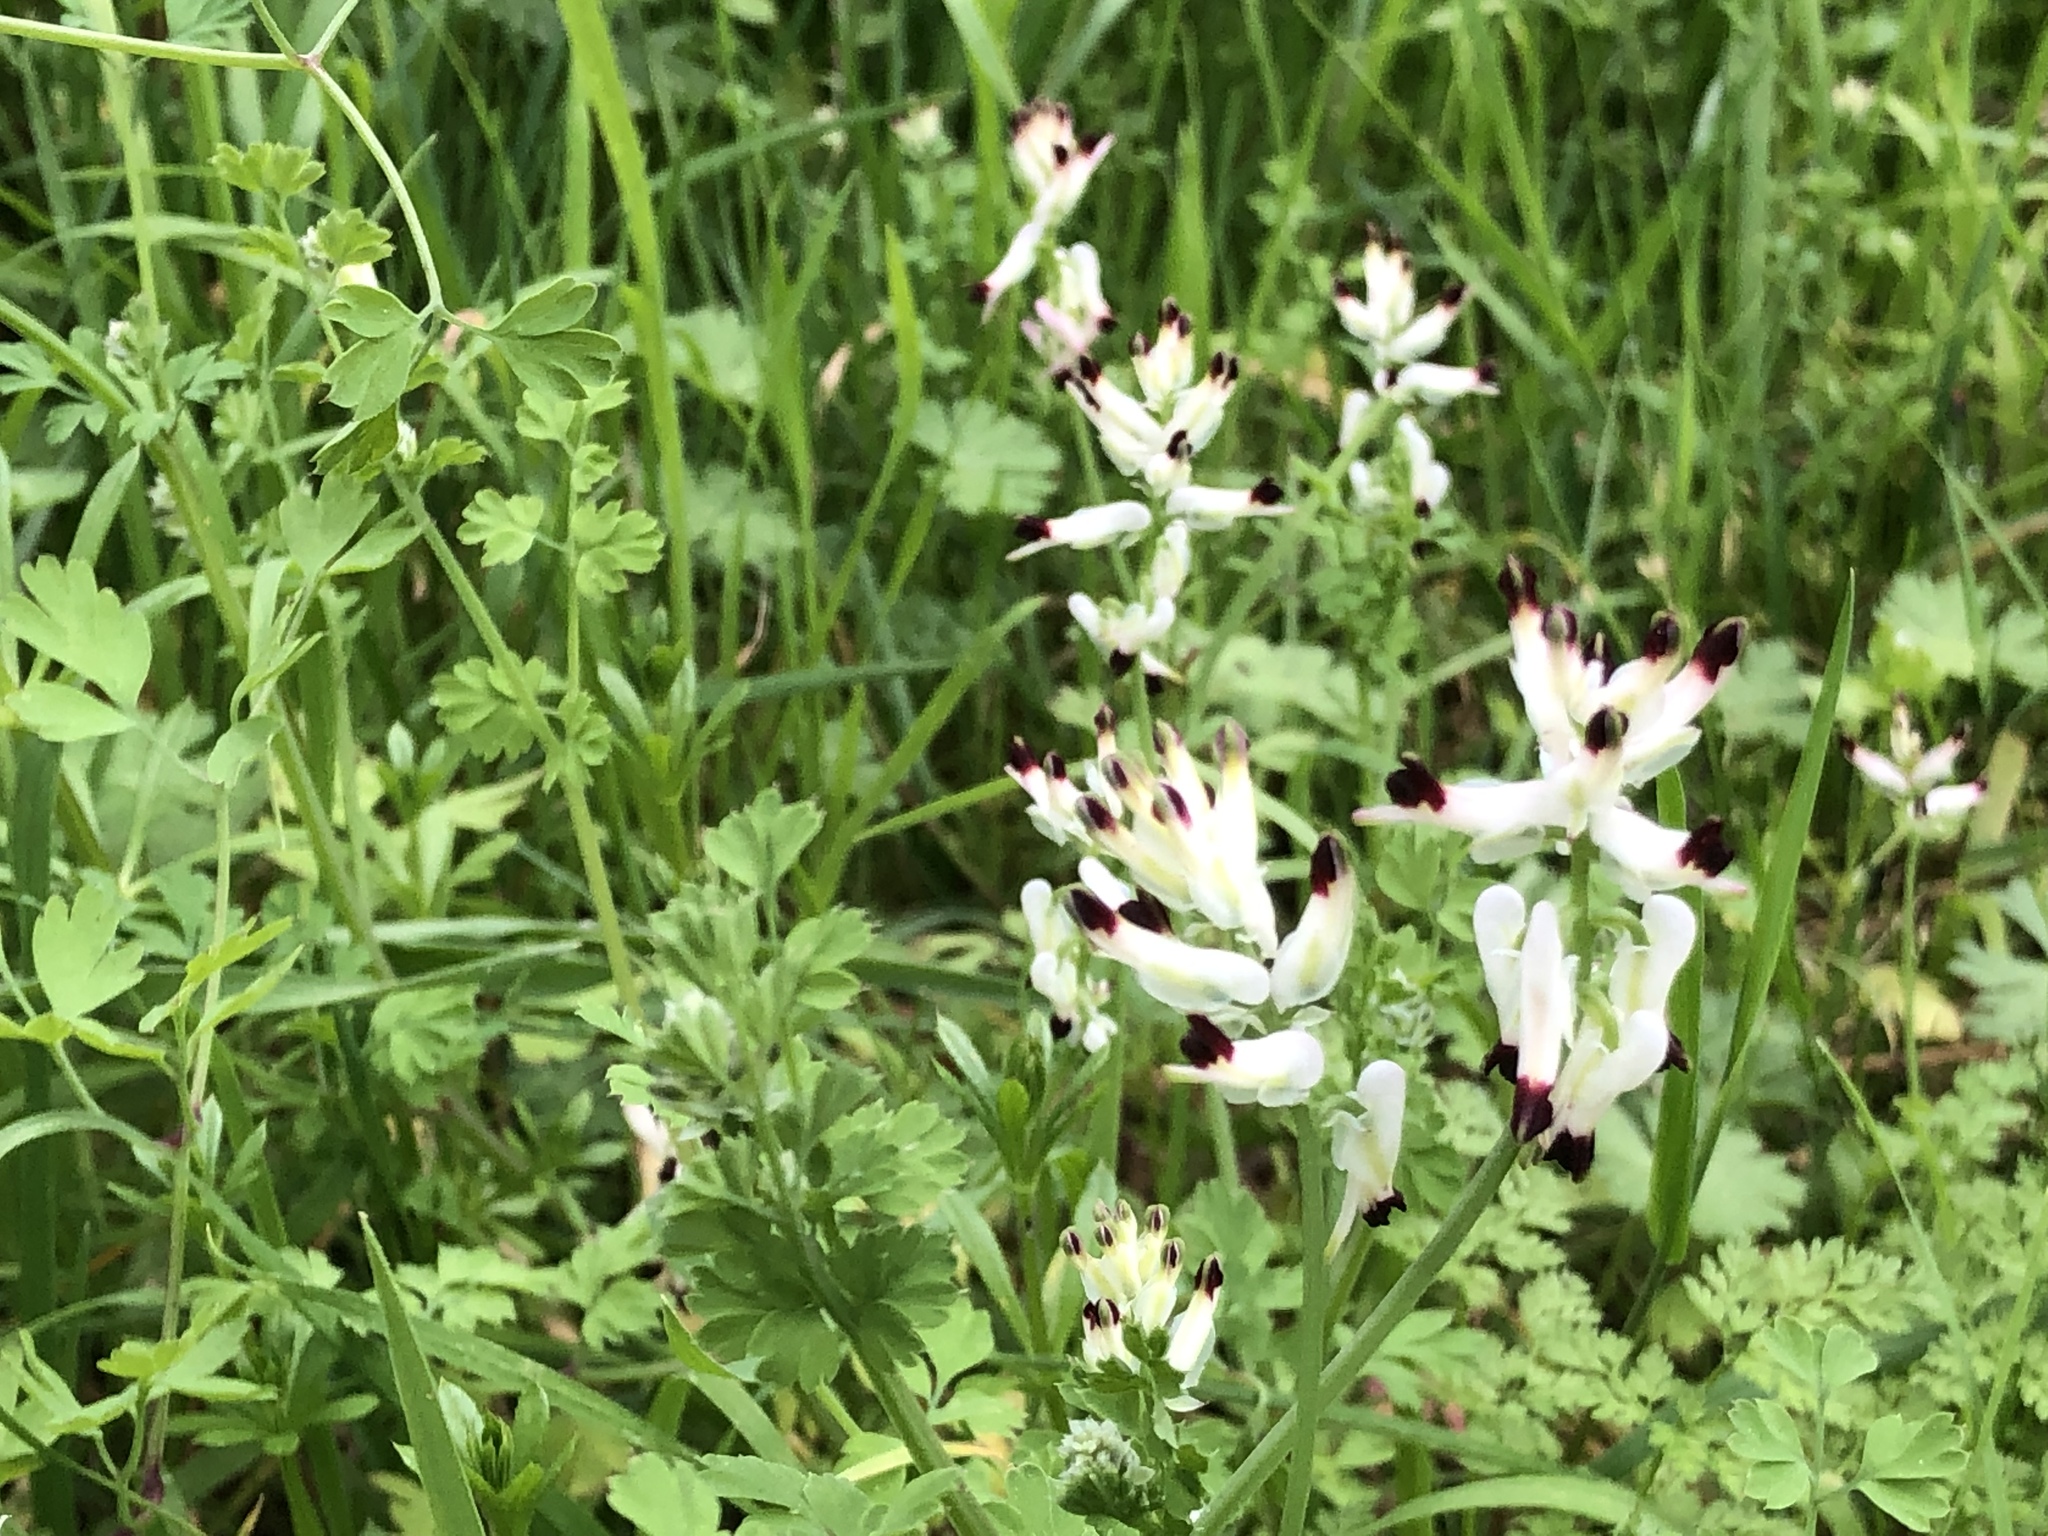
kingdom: Plantae
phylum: Tracheophyta
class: Magnoliopsida
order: Ranunculales
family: Papaveraceae
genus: Fumaria
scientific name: Fumaria capreolata
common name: White ramping-fumitory
